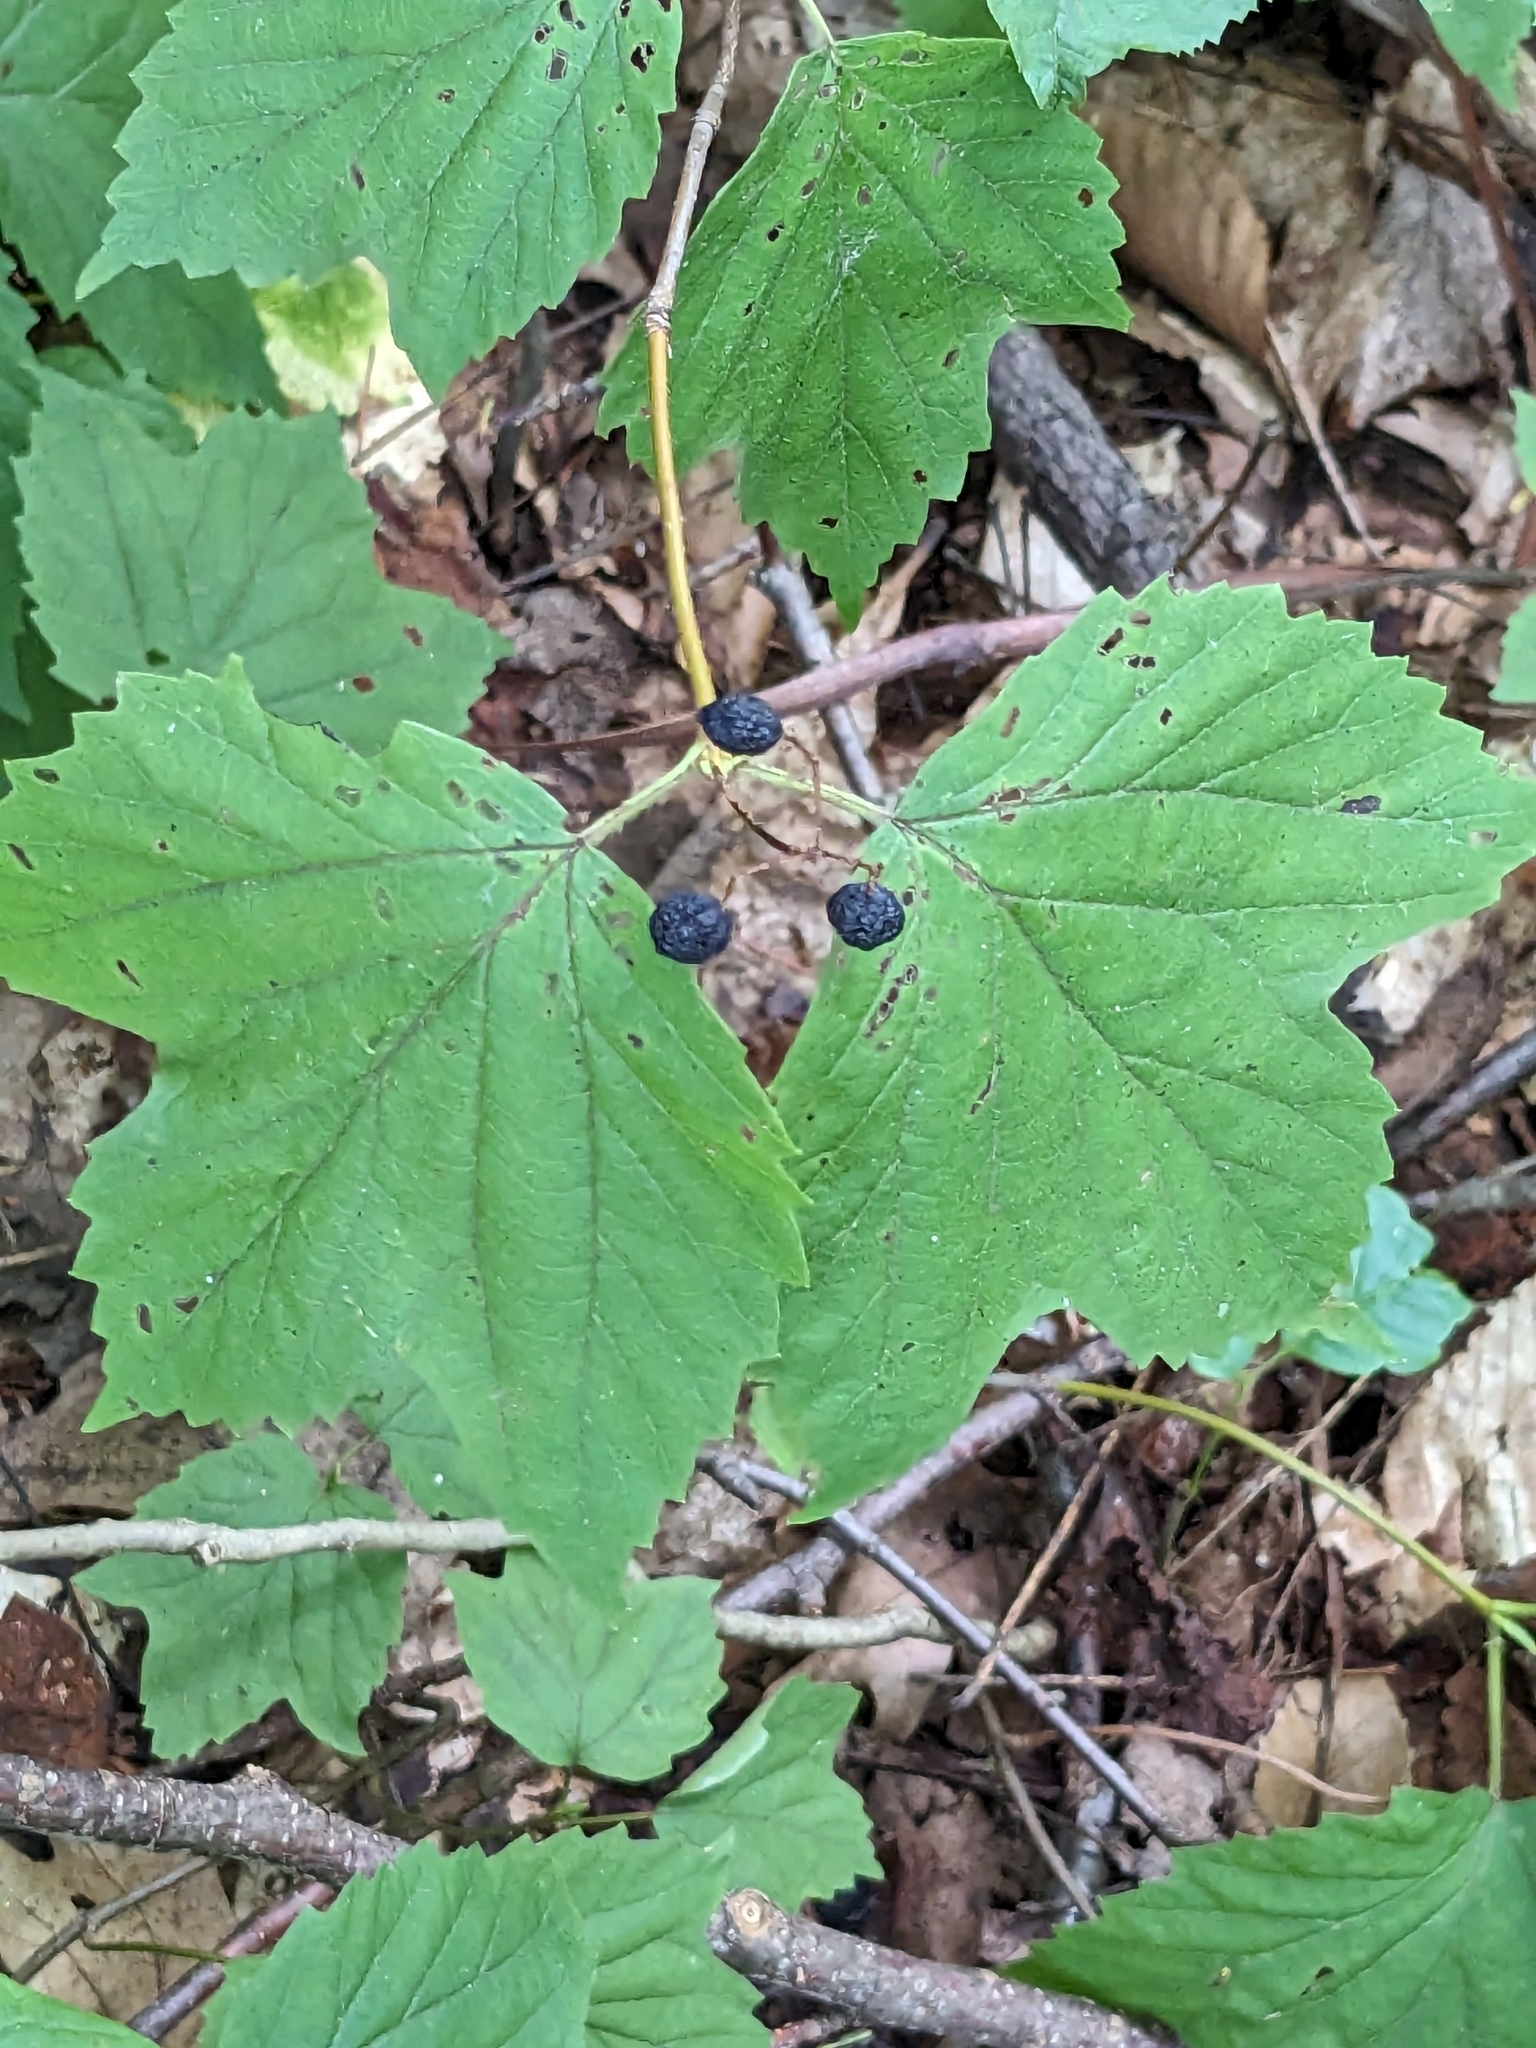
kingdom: Plantae
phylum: Tracheophyta
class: Magnoliopsida
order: Dipsacales
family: Viburnaceae
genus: Viburnum
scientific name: Viburnum acerifolium
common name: Dockmackie
